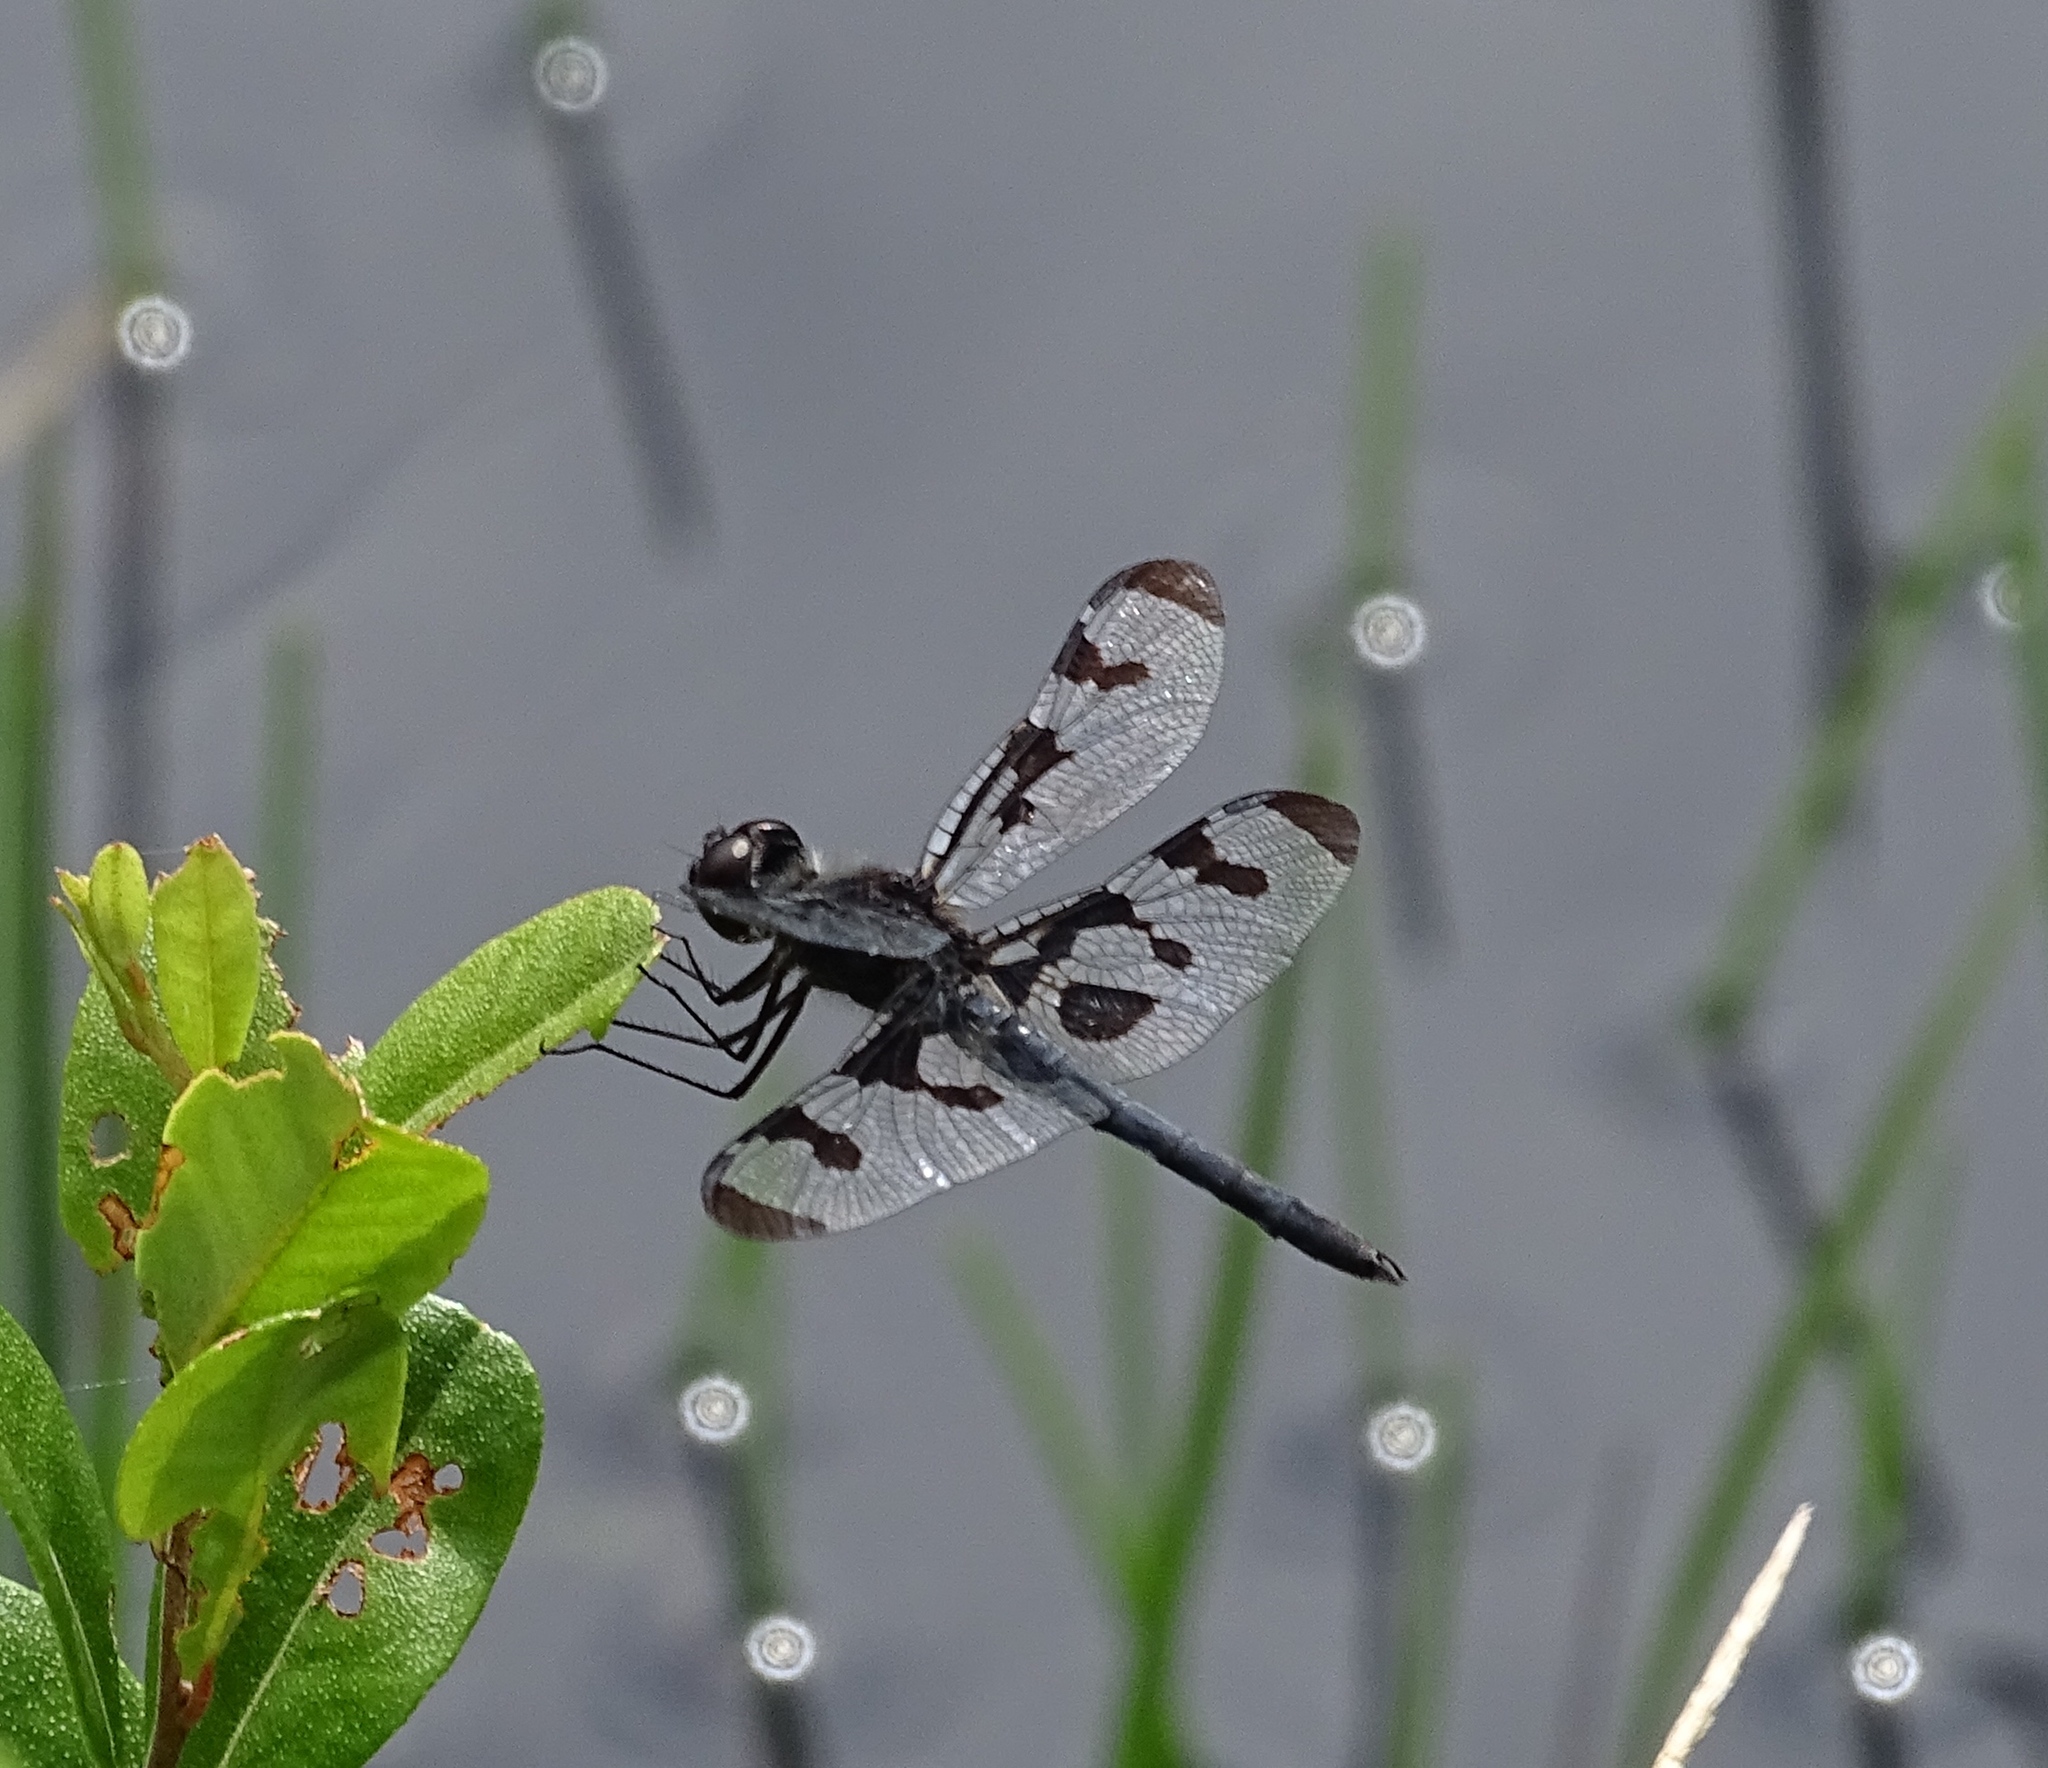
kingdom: Animalia
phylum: Arthropoda
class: Insecta
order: Odonata
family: Libellulidae
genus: Celithemis
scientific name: Celithemis fasciata
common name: Banded pennant
